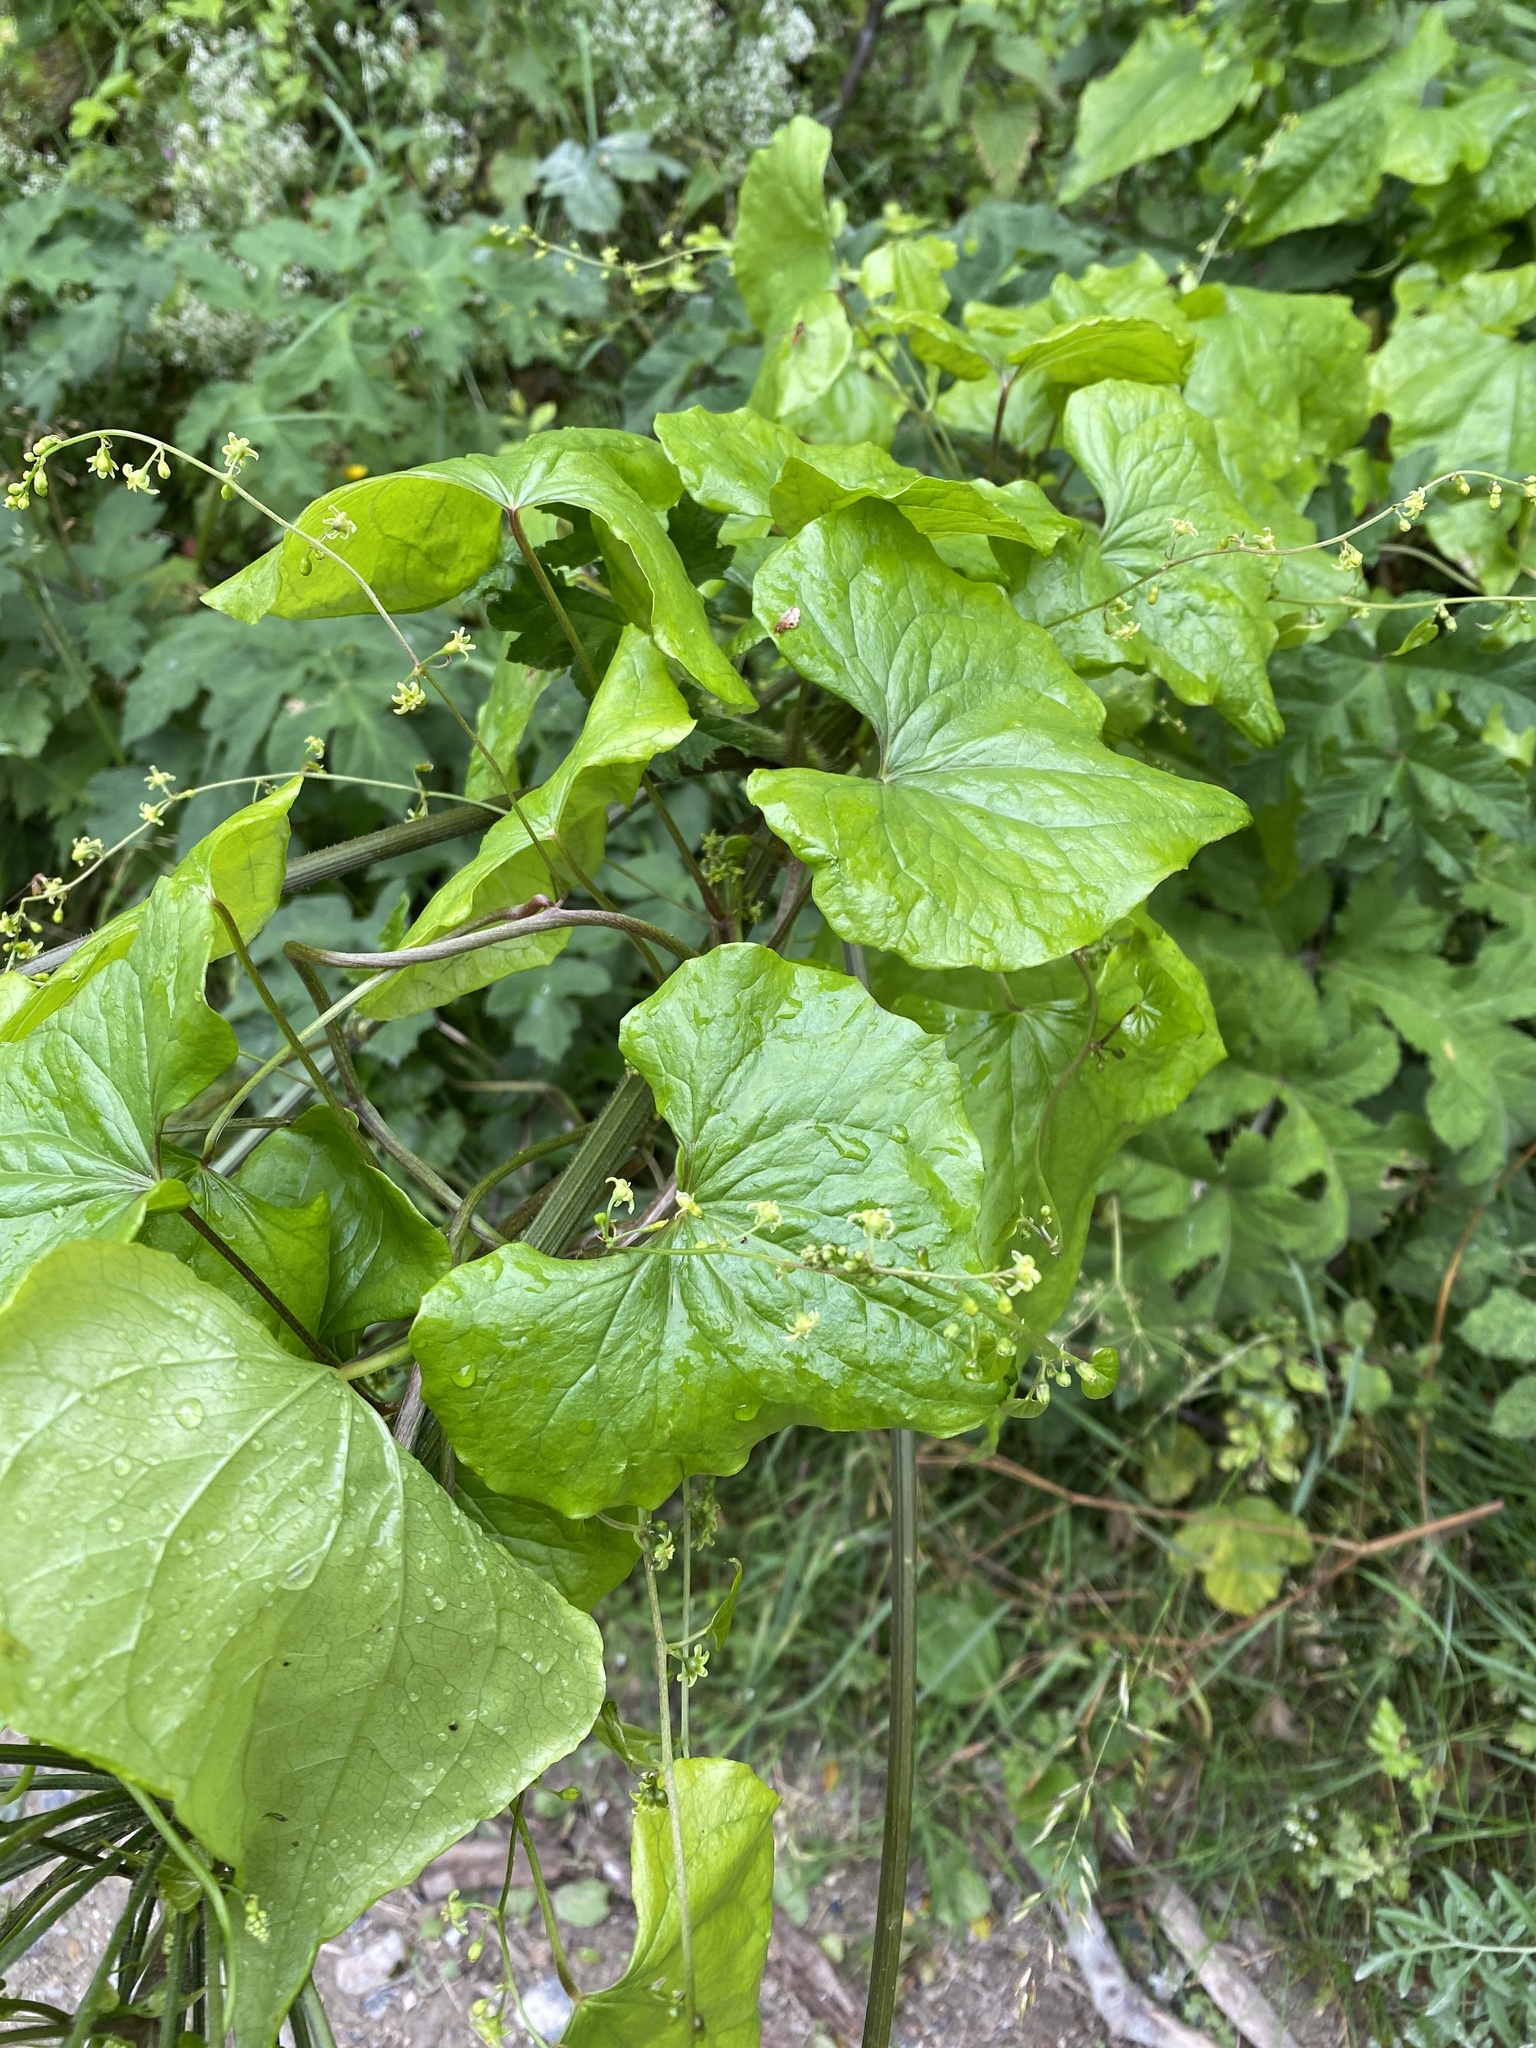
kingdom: Plantae
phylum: Tracheophyta
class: Liliopsida
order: Dioscoreales
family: Dioscoreaceae
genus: Dioscorea
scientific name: Dioscorea communis
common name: Black-bindweed
